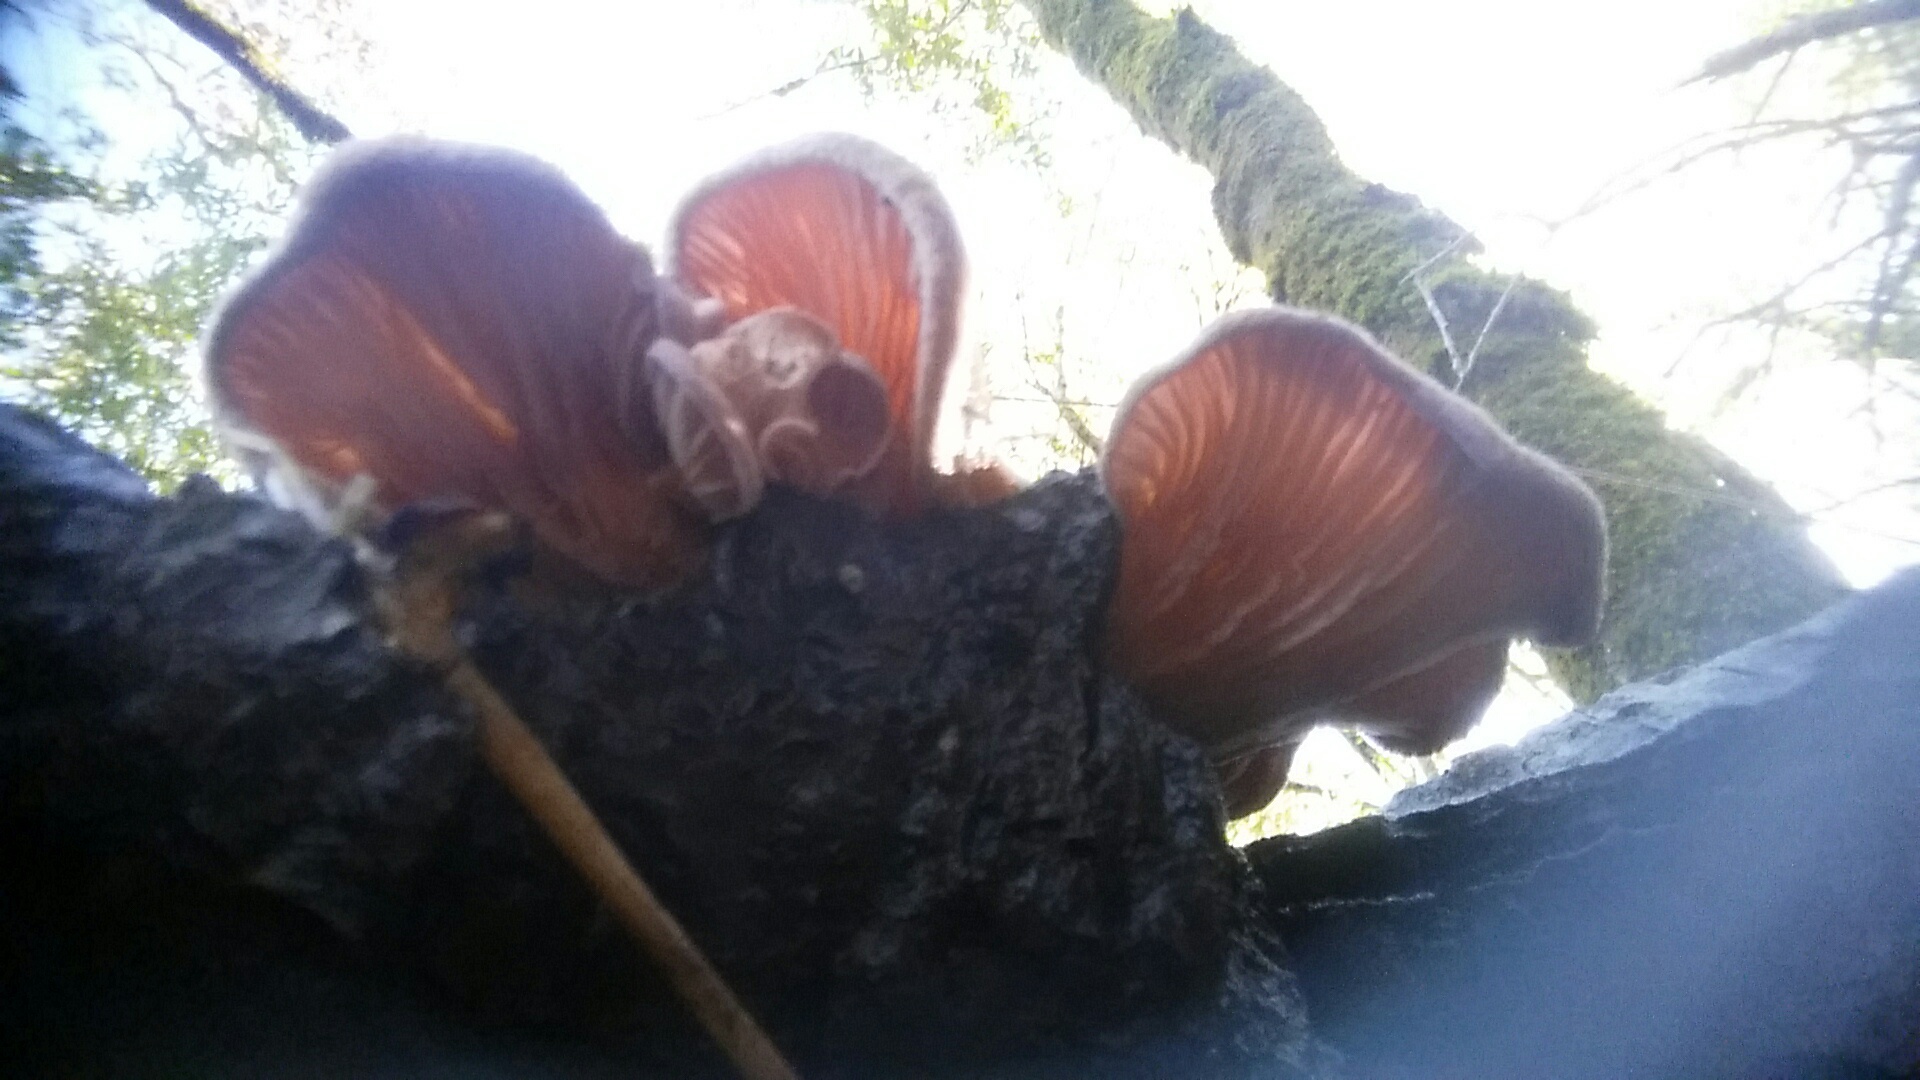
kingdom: Fungi
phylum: Basidiomycota
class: Agaricomycetes
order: Polyporales
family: Panaceae
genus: Panus
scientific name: Panus conchatus
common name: Lilac oysterling
